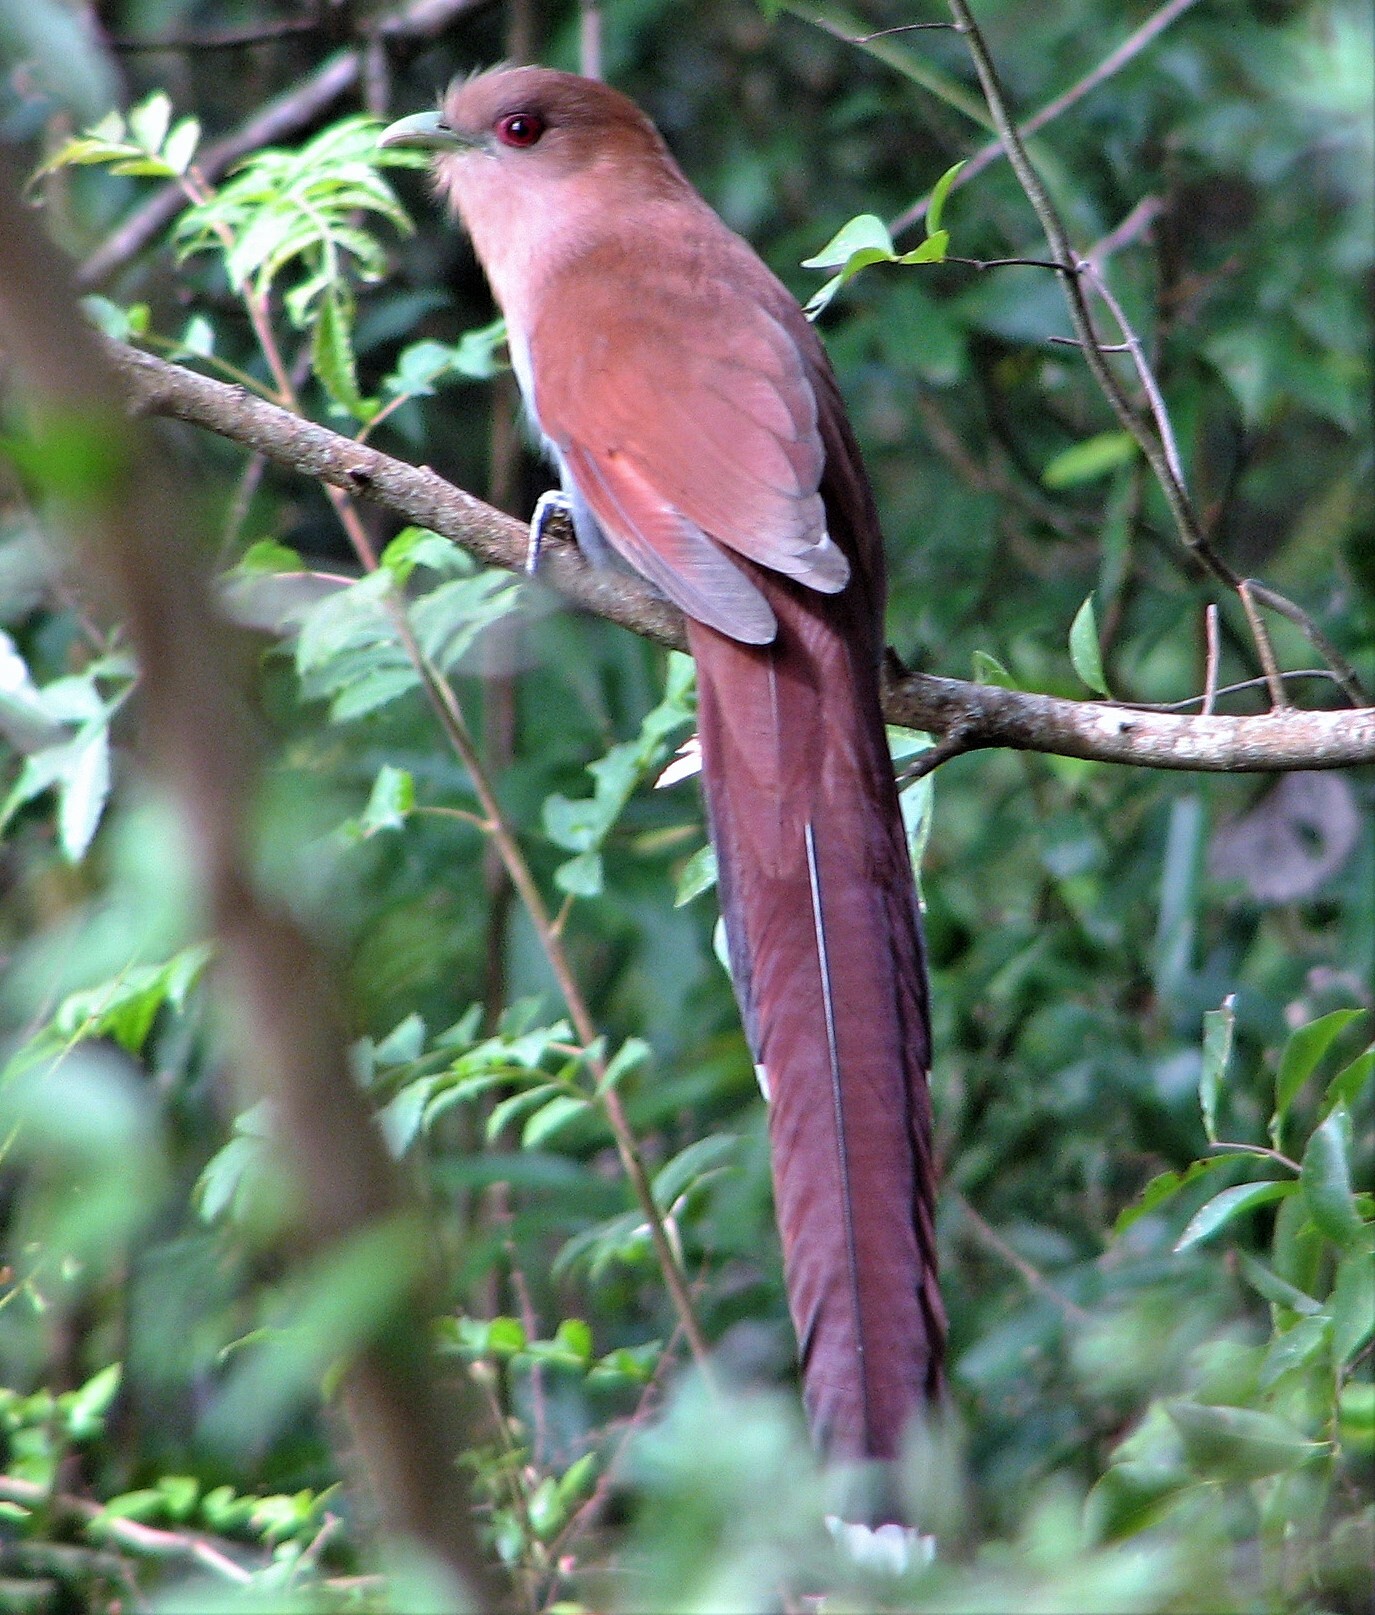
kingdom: Animalia
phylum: Chordata
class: Aves
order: Cuculiformes
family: Cuculidae
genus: Piaya
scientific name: Piaya cayana
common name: Squirrel cuckoo
